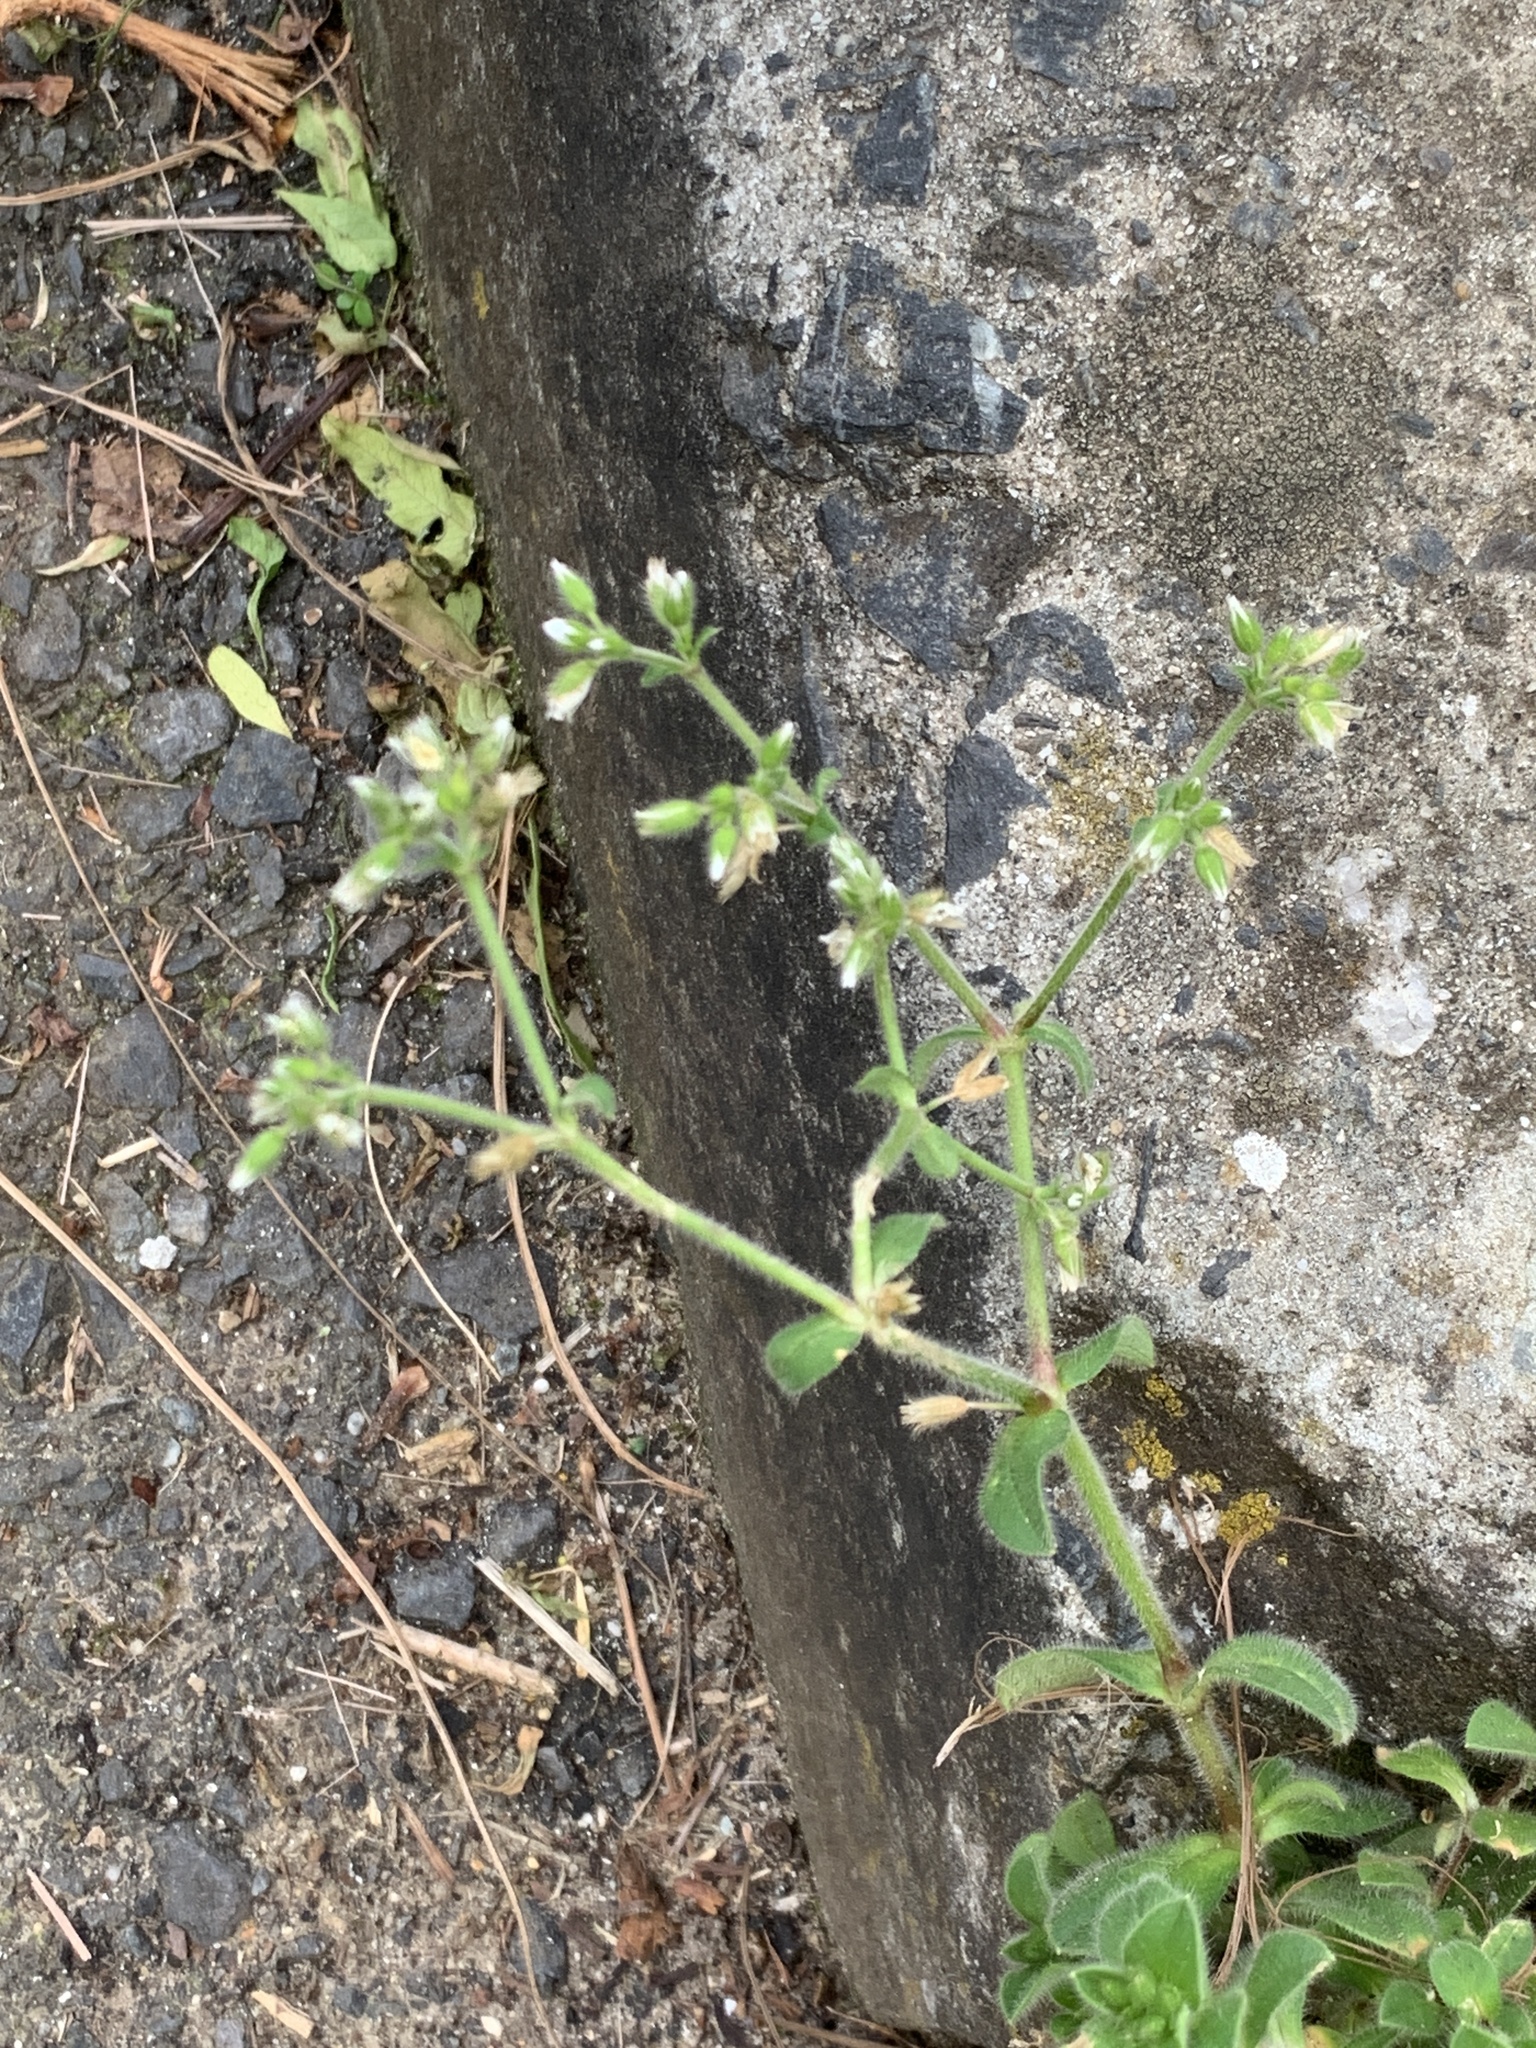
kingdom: Plantae
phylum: Tracheophyta
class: Magnoliopsida
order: Caryophyllales
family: Caryophyllaceae
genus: Cerastium
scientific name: Cerastium glomeratum
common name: Sticky chickweed
